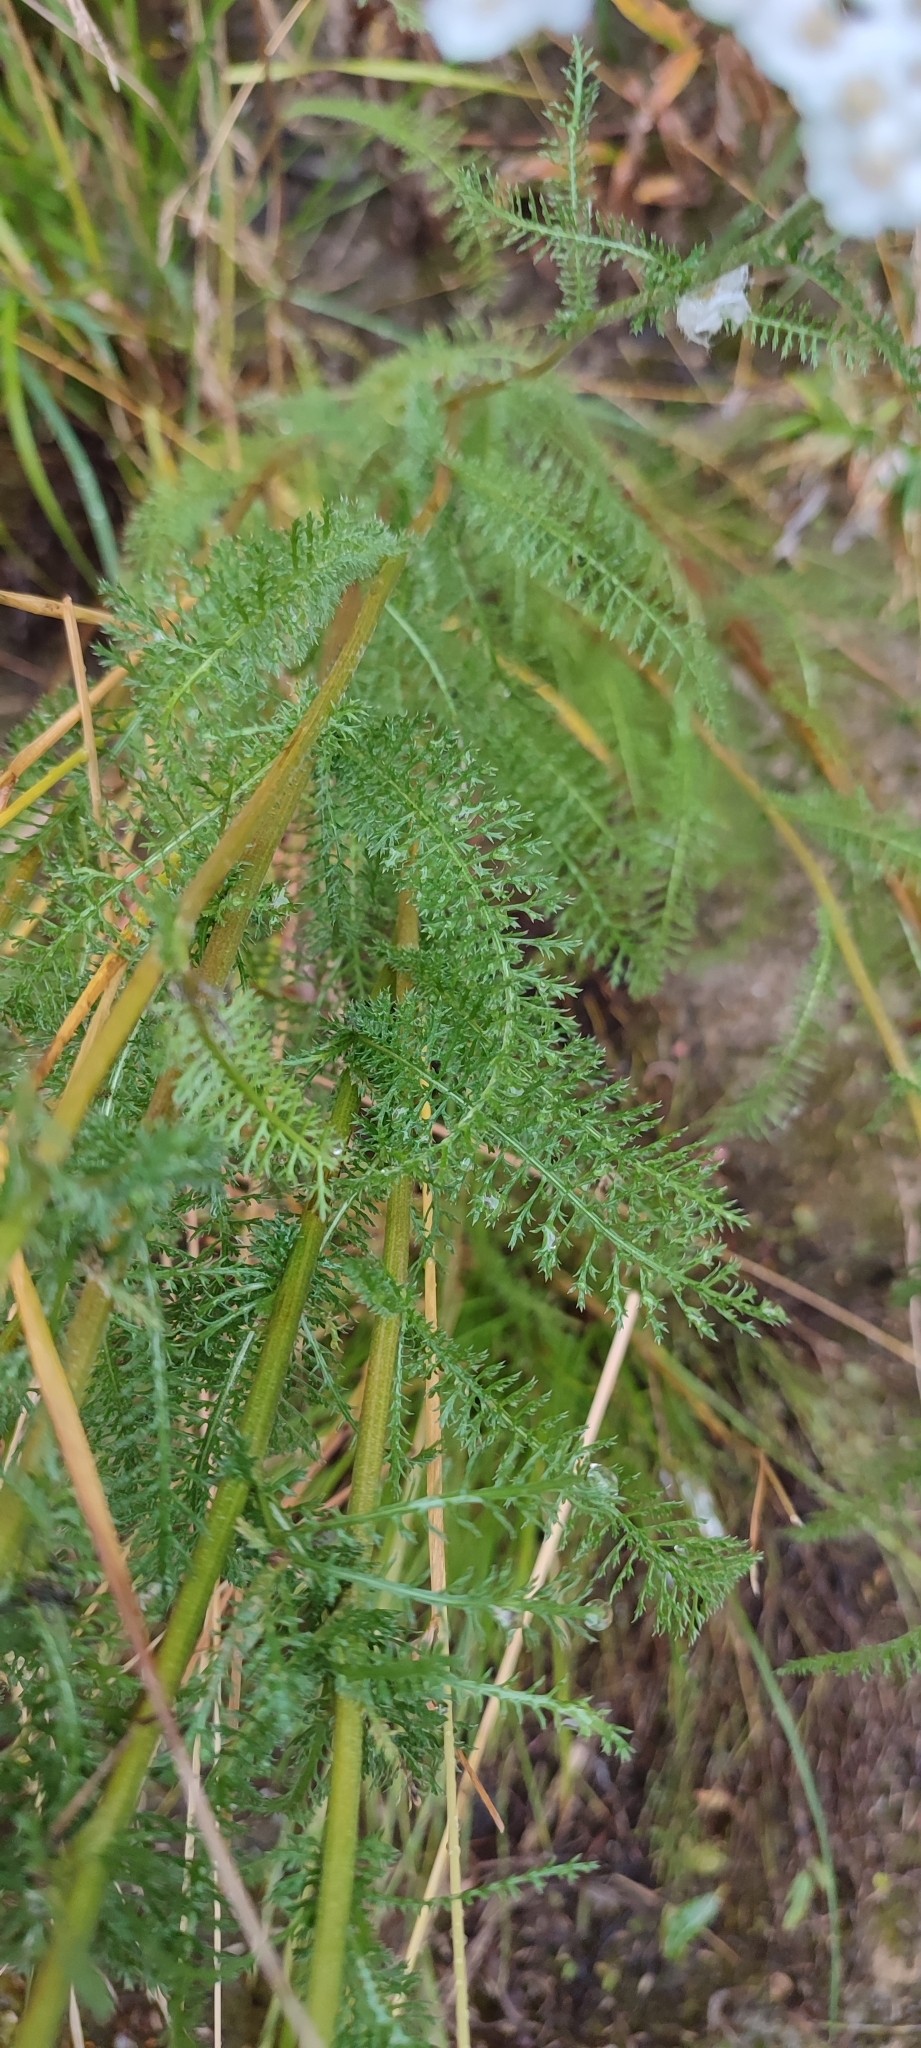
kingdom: Plantae
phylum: Tracheophyta
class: Magnoliopsida
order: Asterales
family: Asteraceae
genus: Achillea
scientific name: Achillea millefolium
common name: Yarrow
